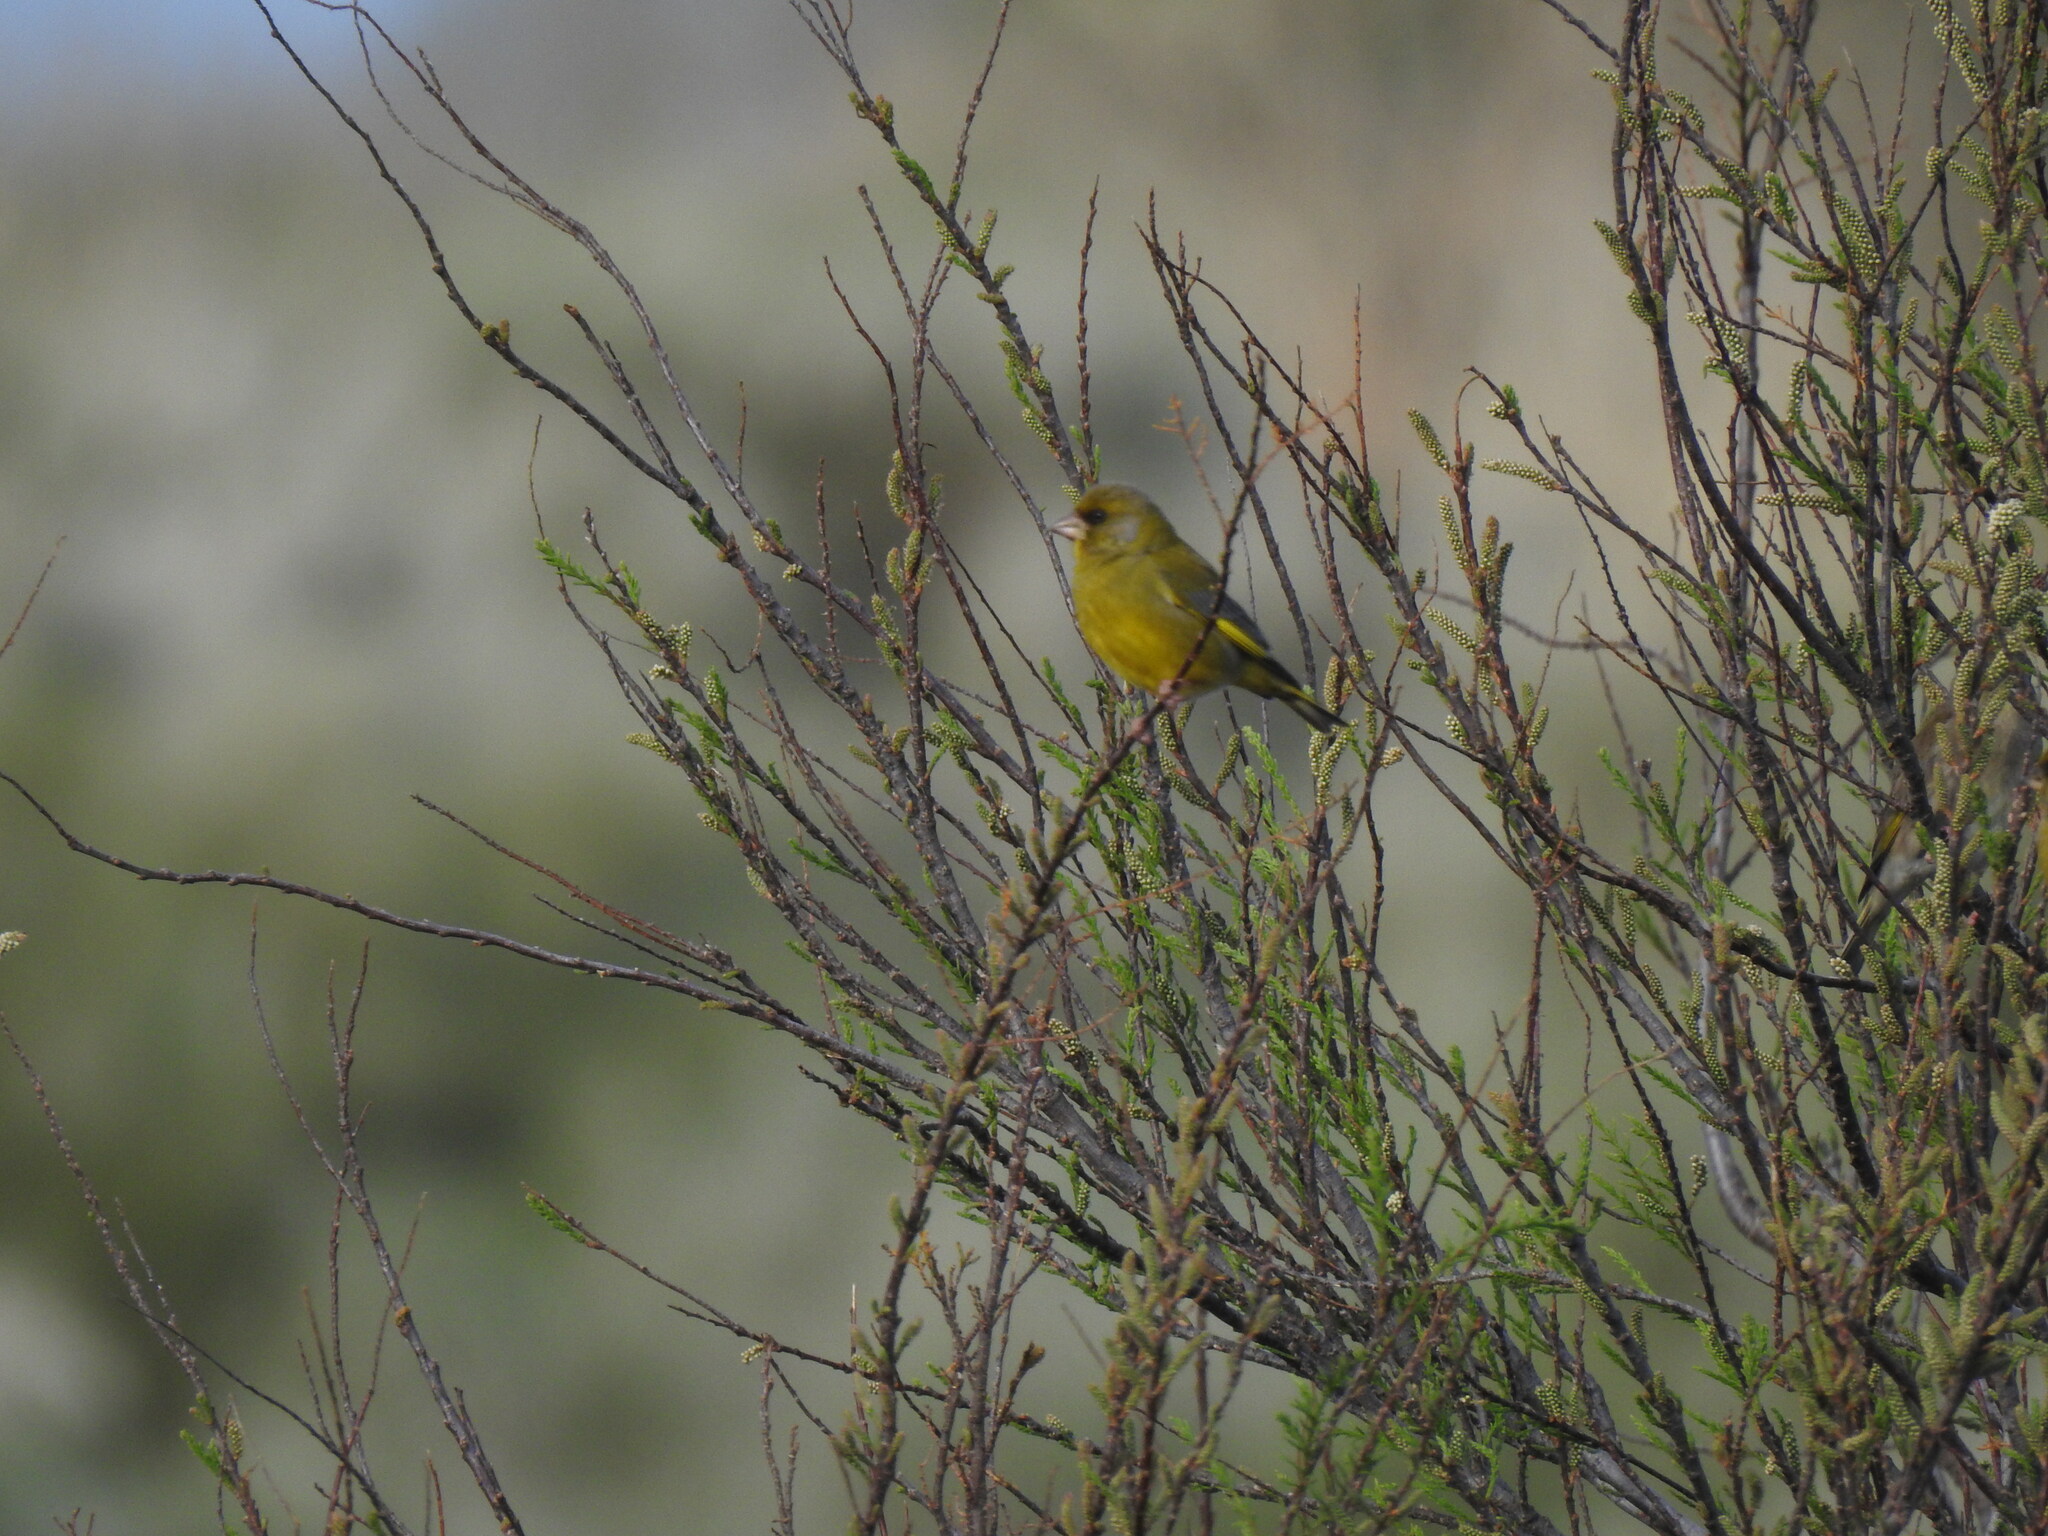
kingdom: Plantae
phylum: Tracheophyta
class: Liliopsida
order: Poales
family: Poaceae
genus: Chloris
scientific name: Chloris chloris
